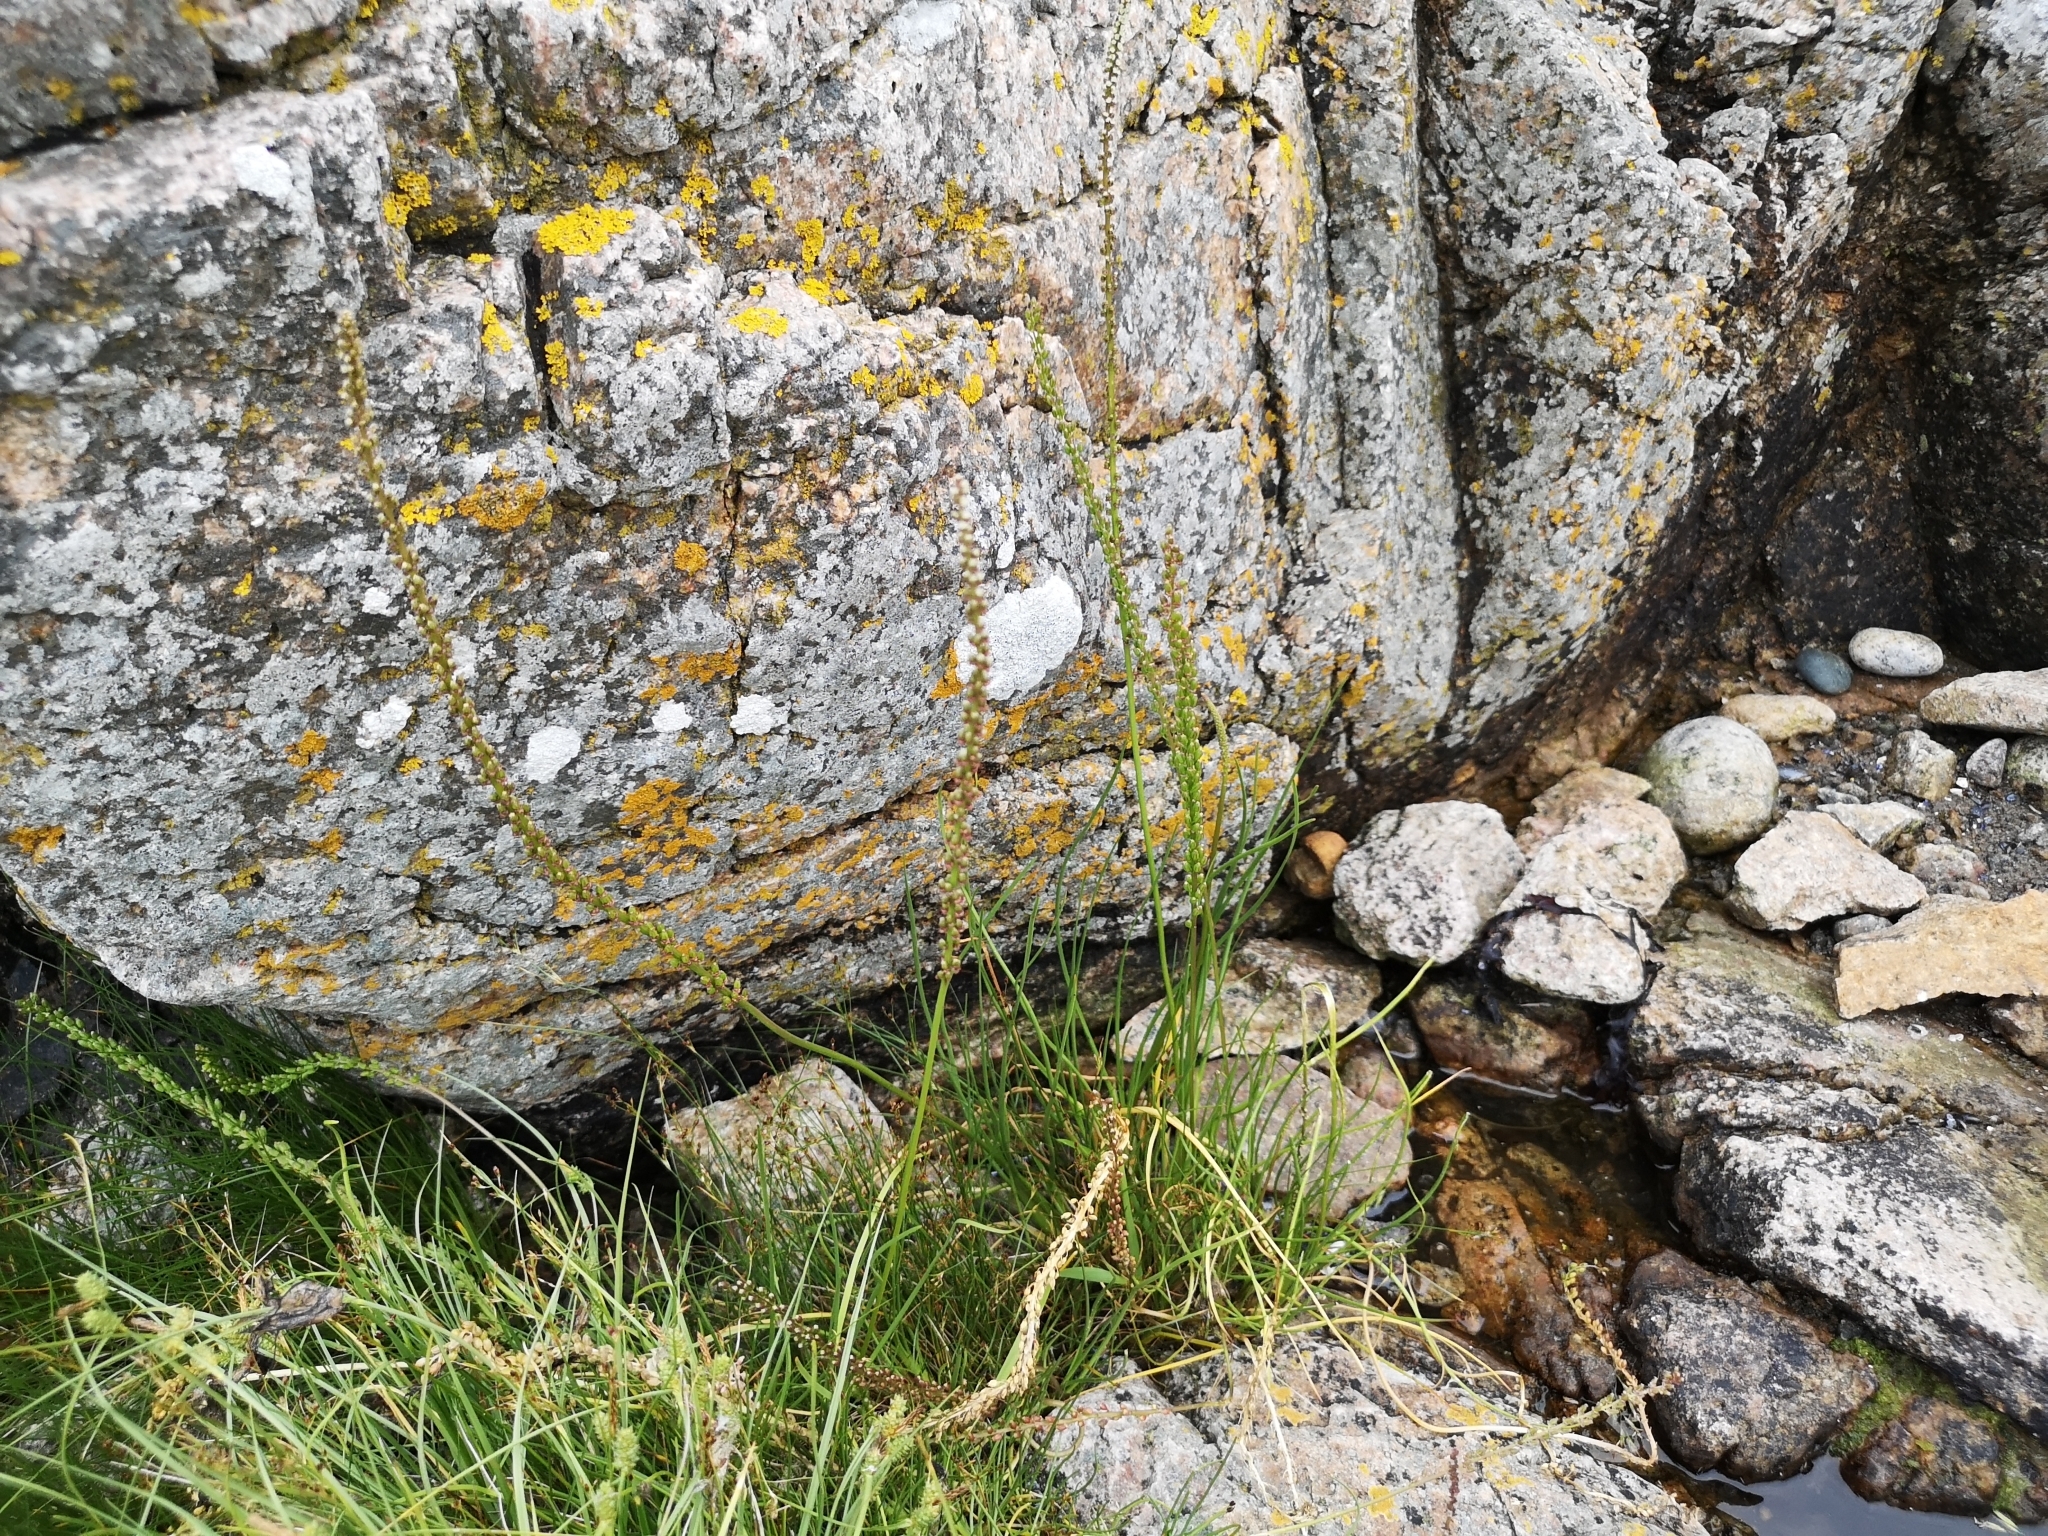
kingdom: Plantae
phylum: Tracheophyta
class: Liliopsida
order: Alismatales
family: Juncaginaceae
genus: Triglochin
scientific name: Triglochin maritima
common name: Sea arrowgrass
